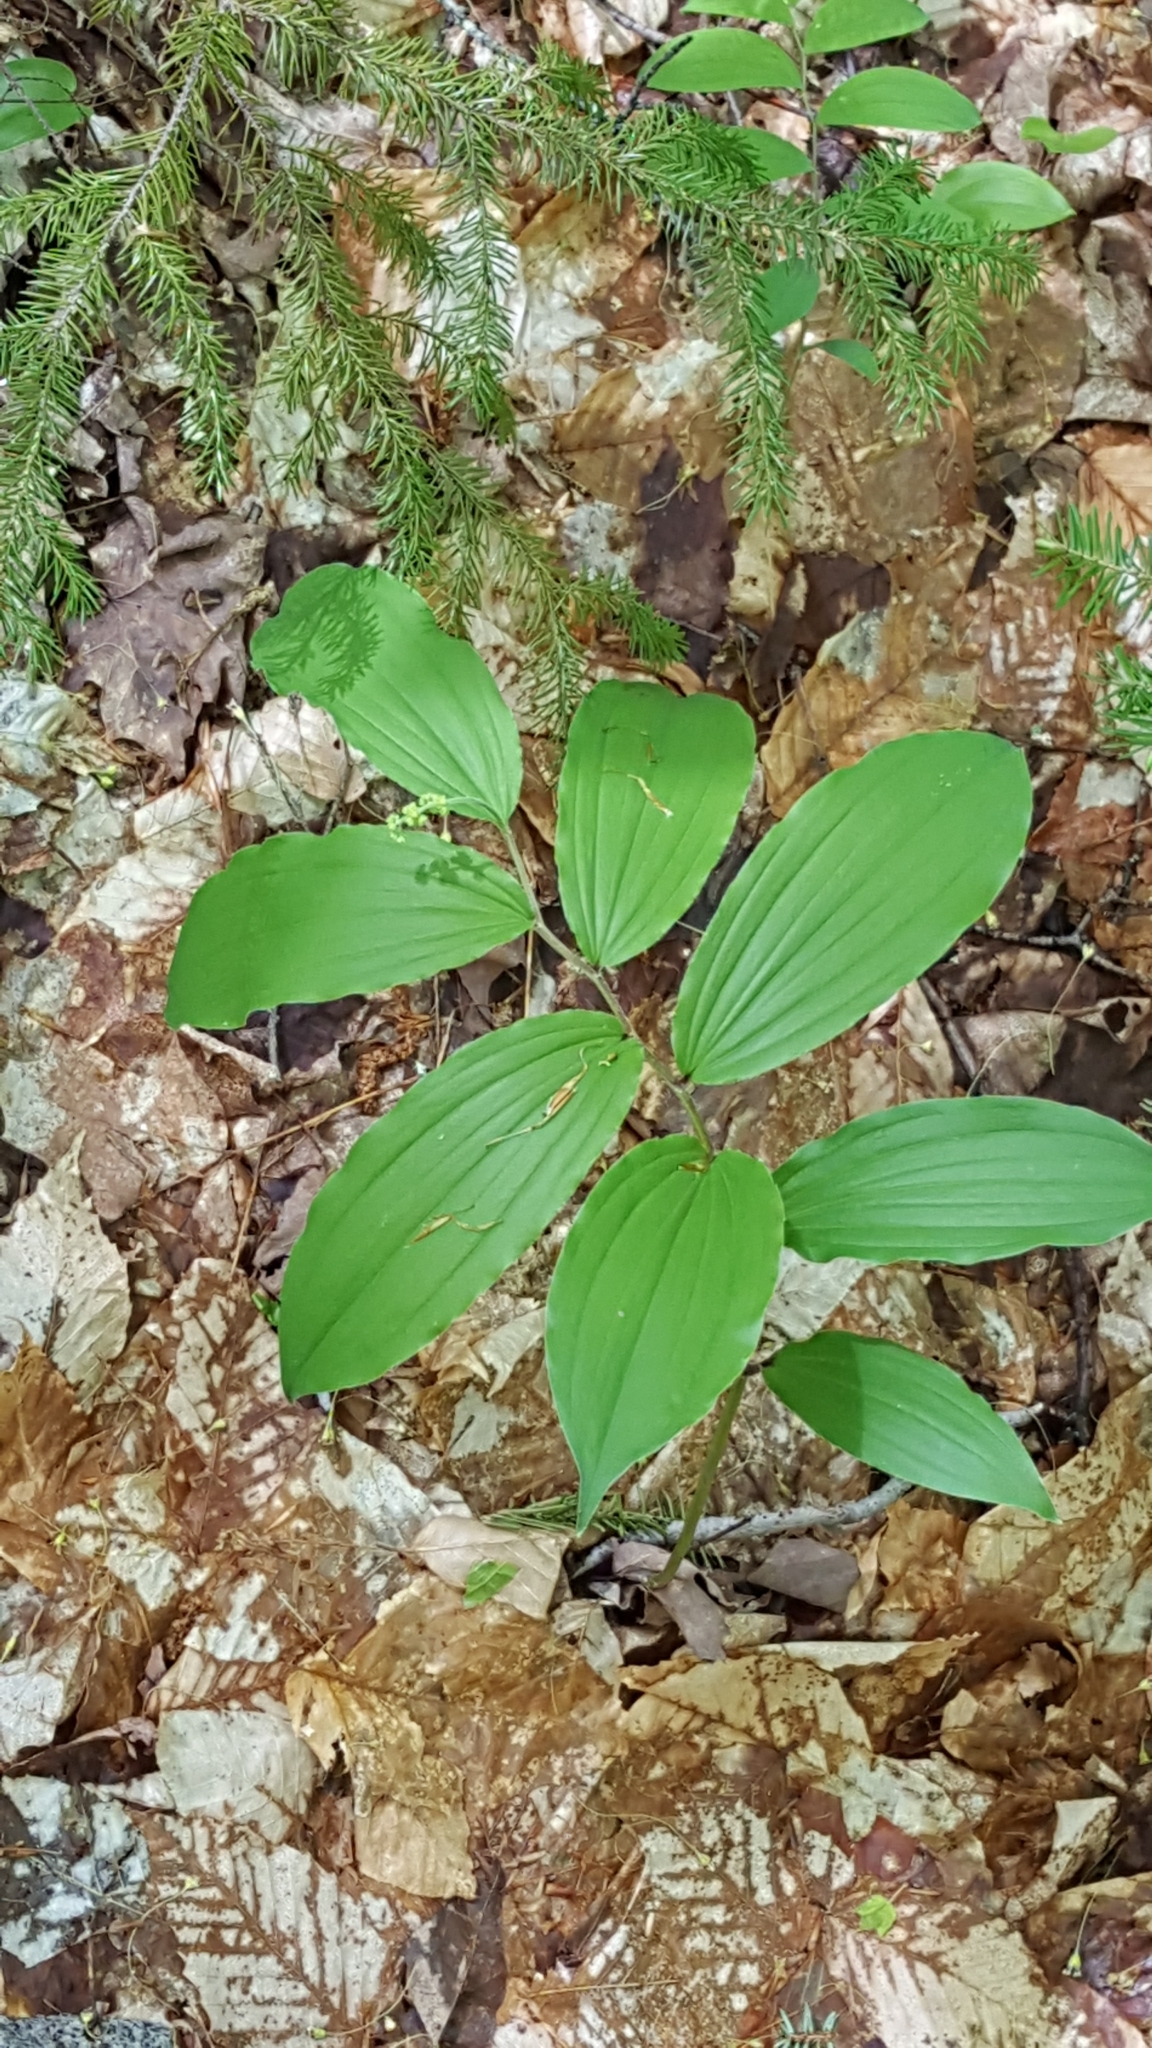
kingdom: Plantae
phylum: Tracheophyta
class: Liliopsida
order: Asparagales
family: Asparagaceae
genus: Maianthemum
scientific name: Maianthemum racemosum
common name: False spikenard
